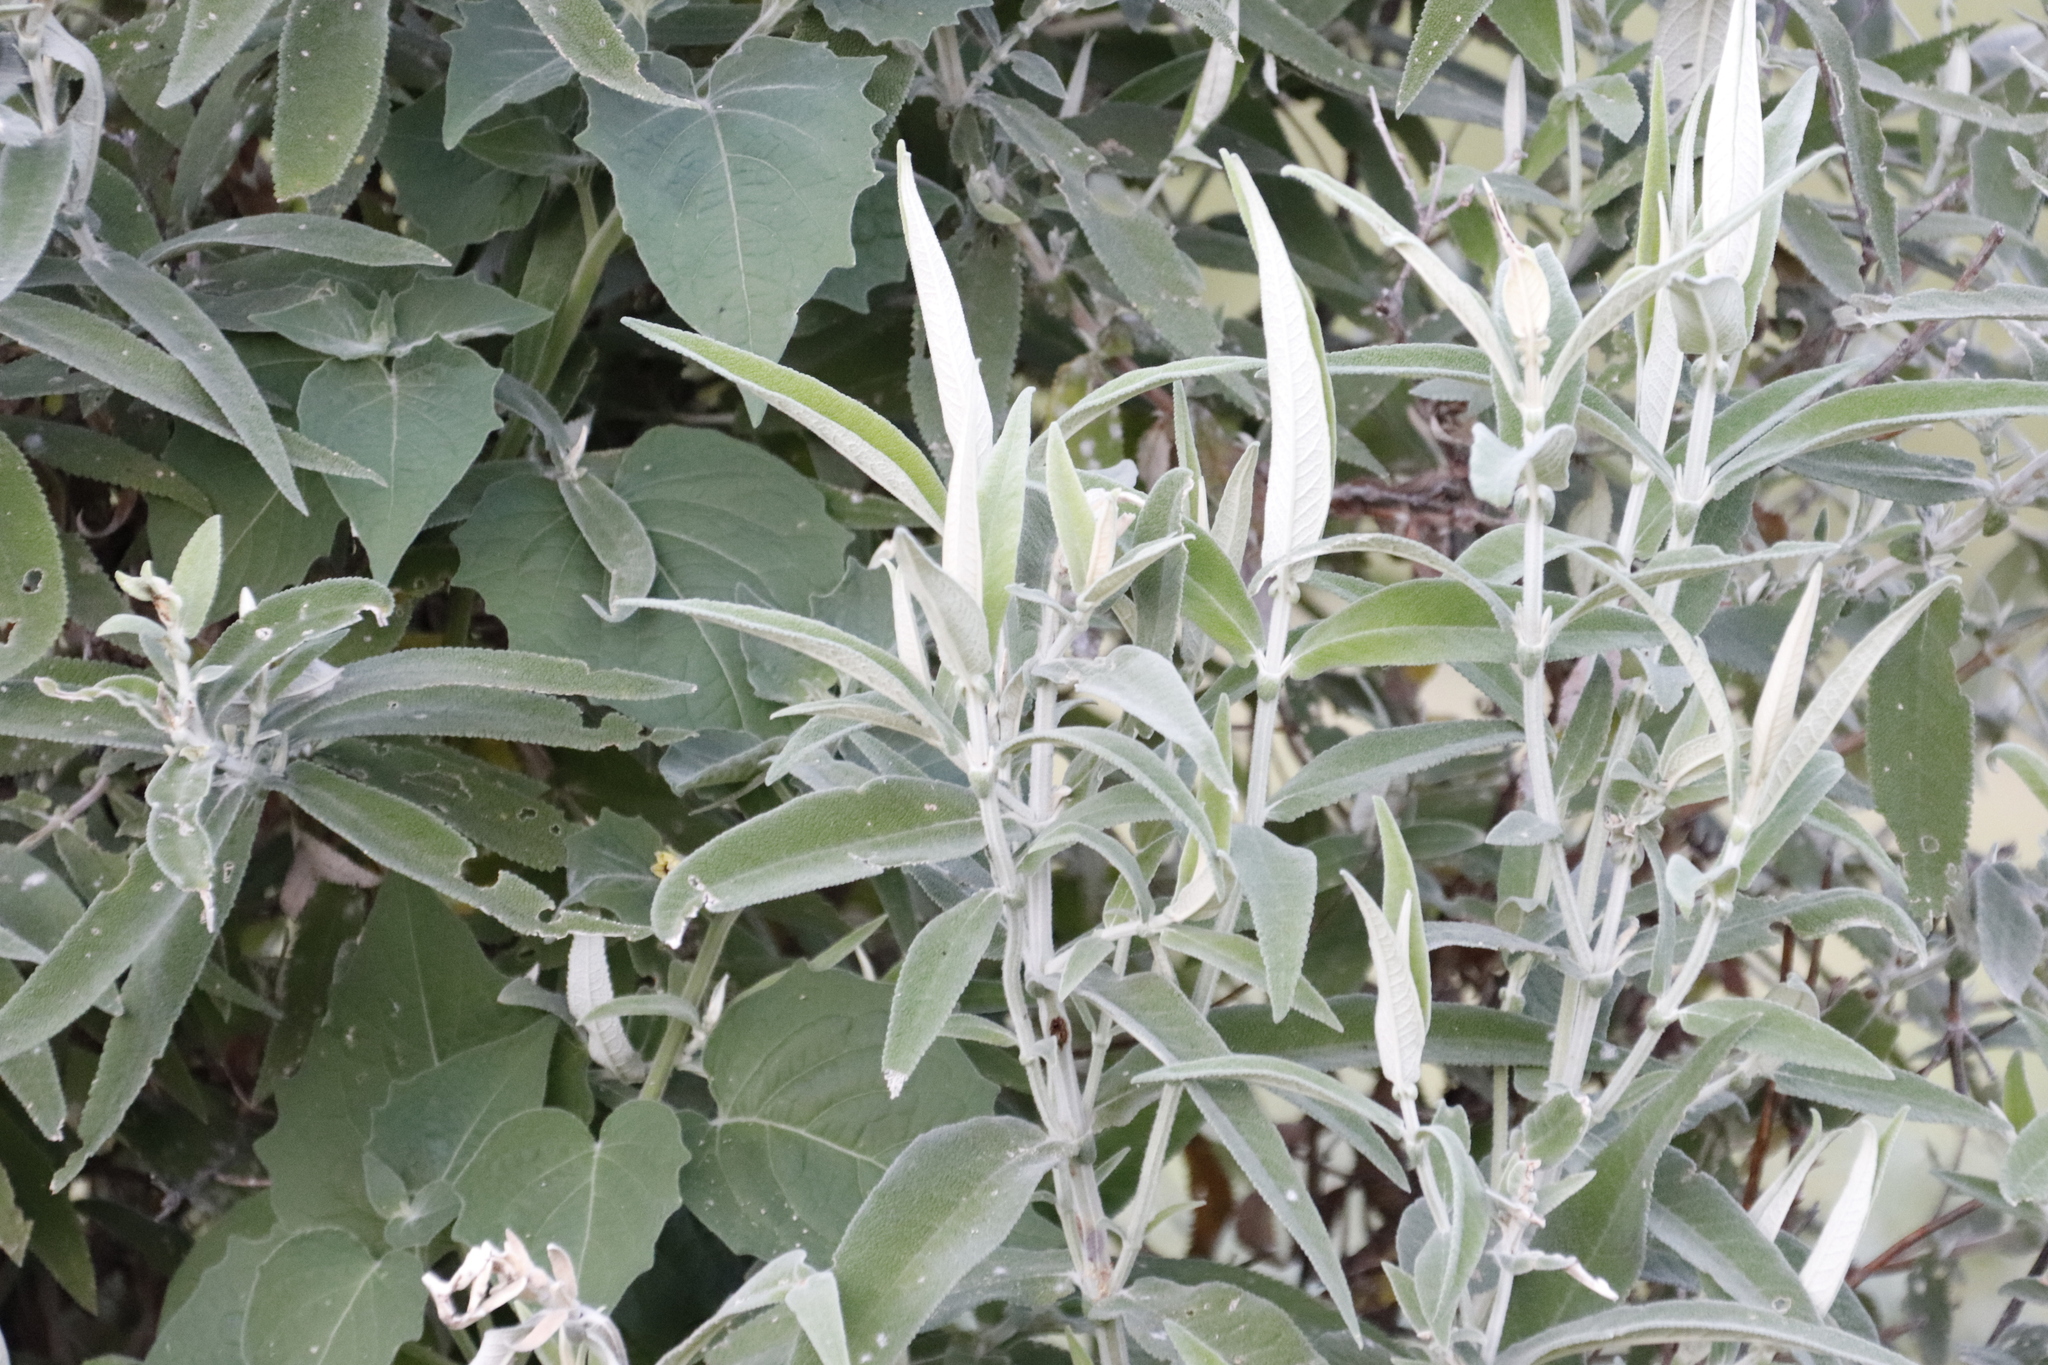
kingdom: Plantae
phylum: Tracheophyta
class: Magnoliopsida
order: Lamiales
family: Scrophulariaceae
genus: Buddleja
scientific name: Buddleja salviifolia
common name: Sagewood
